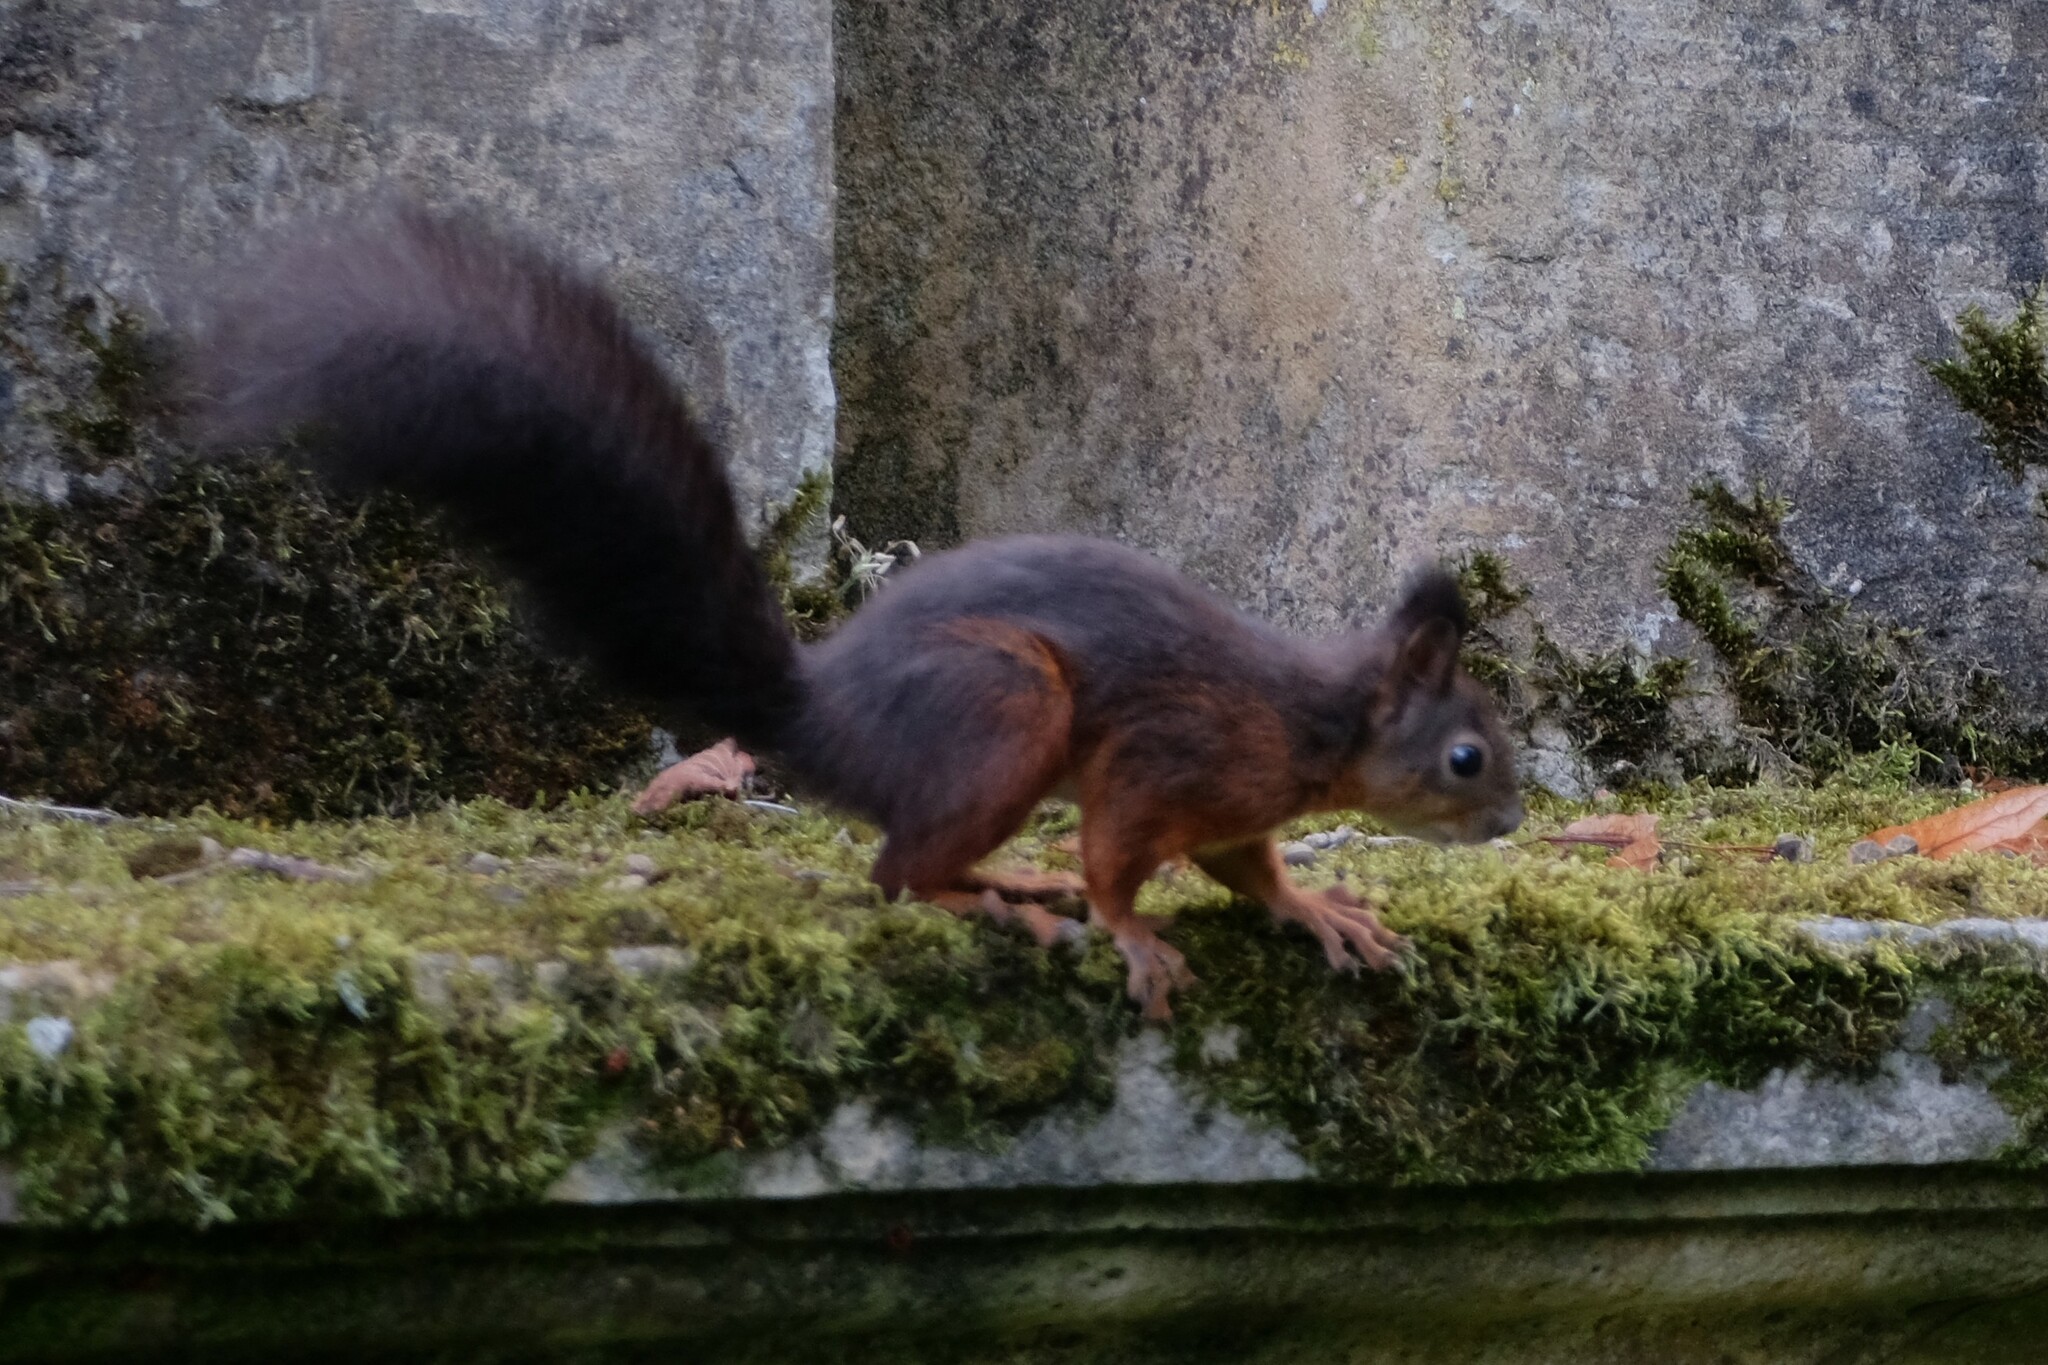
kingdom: Animalia
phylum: Chordata
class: Mammalia
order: Rodentia
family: Sciuridae
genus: Sciurus
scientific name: Sciurus vulgaris
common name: Eurasian red squirrel
